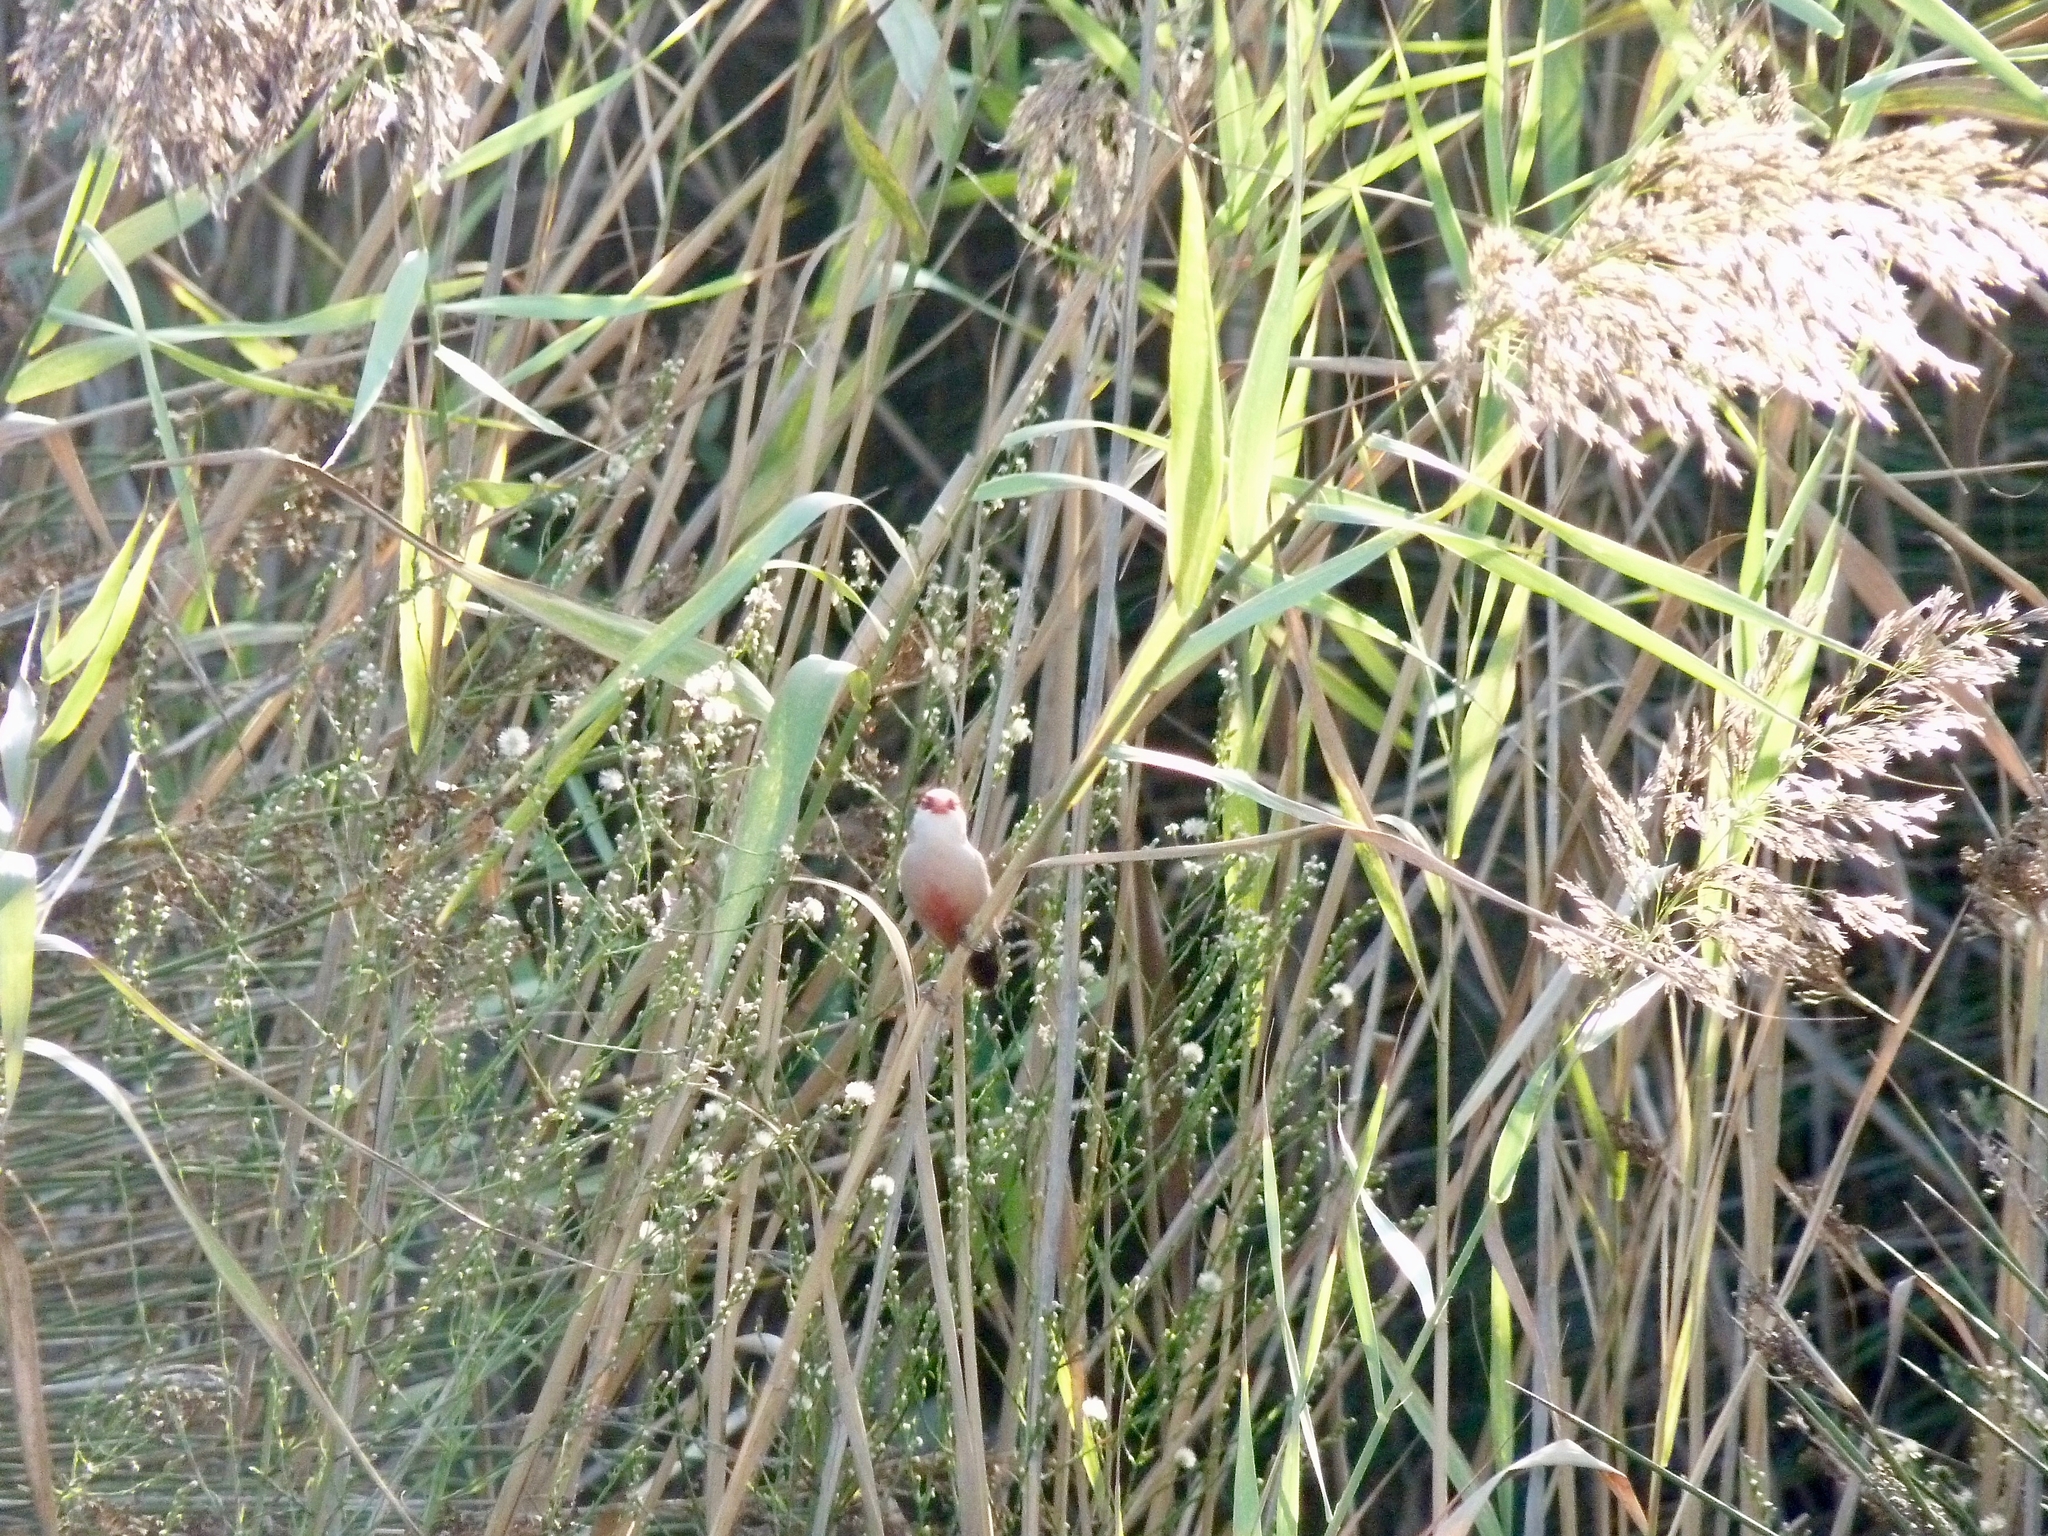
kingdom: Animalia
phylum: Chordata
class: Aves
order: Passeriformes
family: Estrildidae
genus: Estrilda
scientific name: Estrilda astrild
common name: Common waxbill
